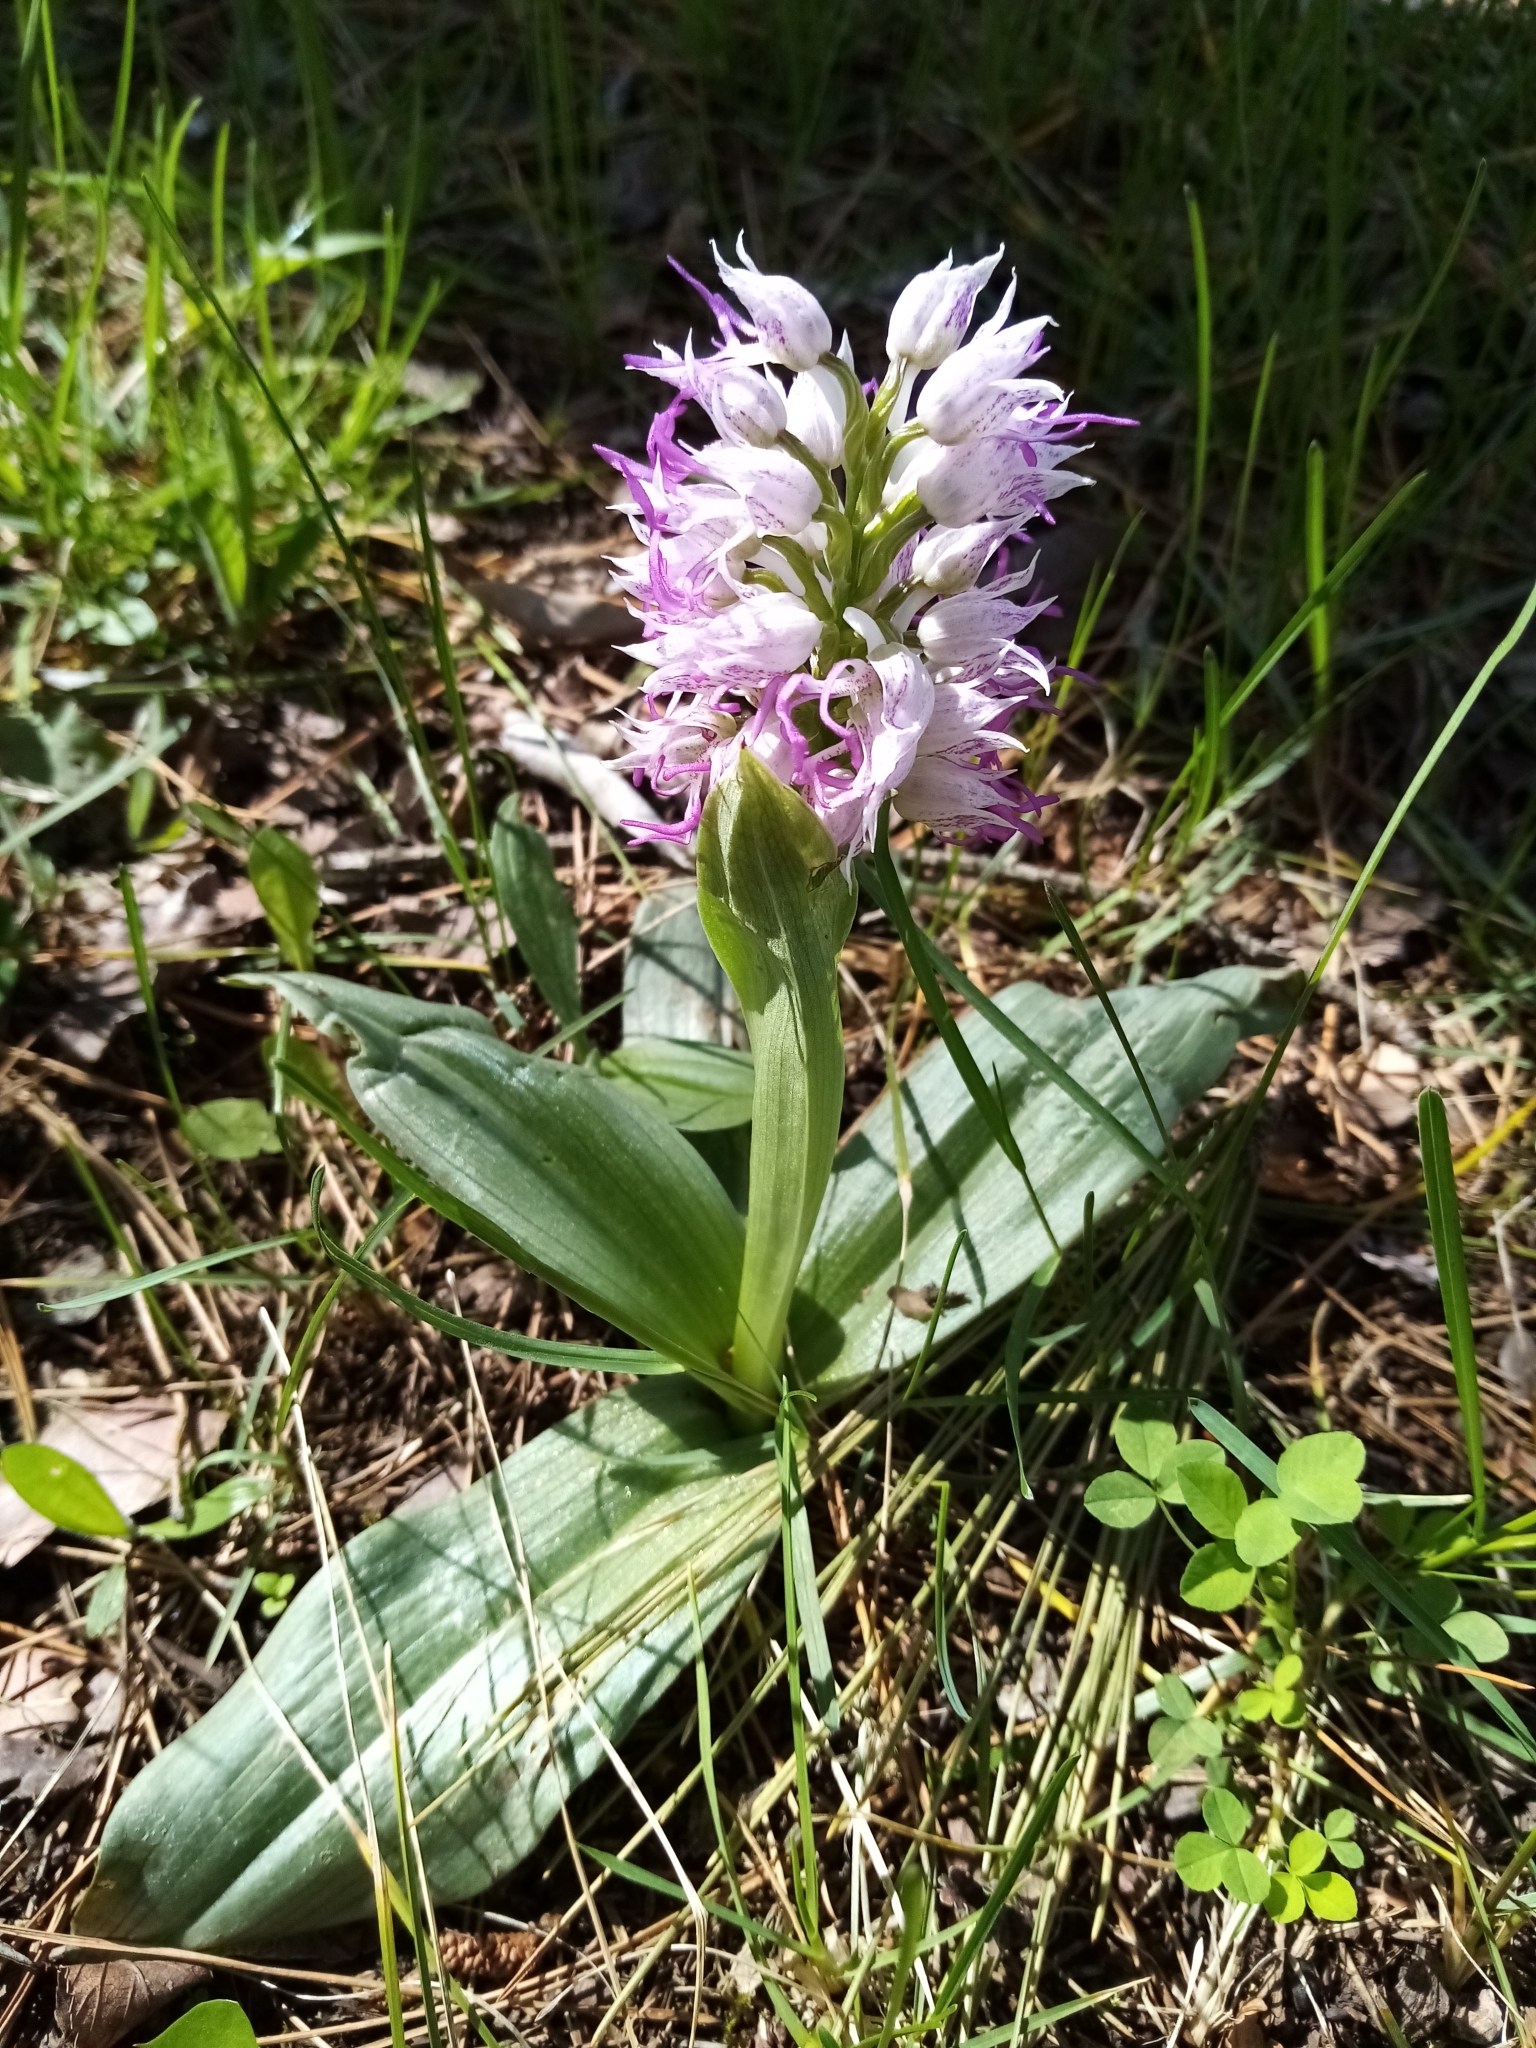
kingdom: Plantae
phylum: Tracheophyta
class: Liliopsida
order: Asparagales
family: Orchidaceae
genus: Orchis
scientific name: Orchis simia
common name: Monkey orchid
